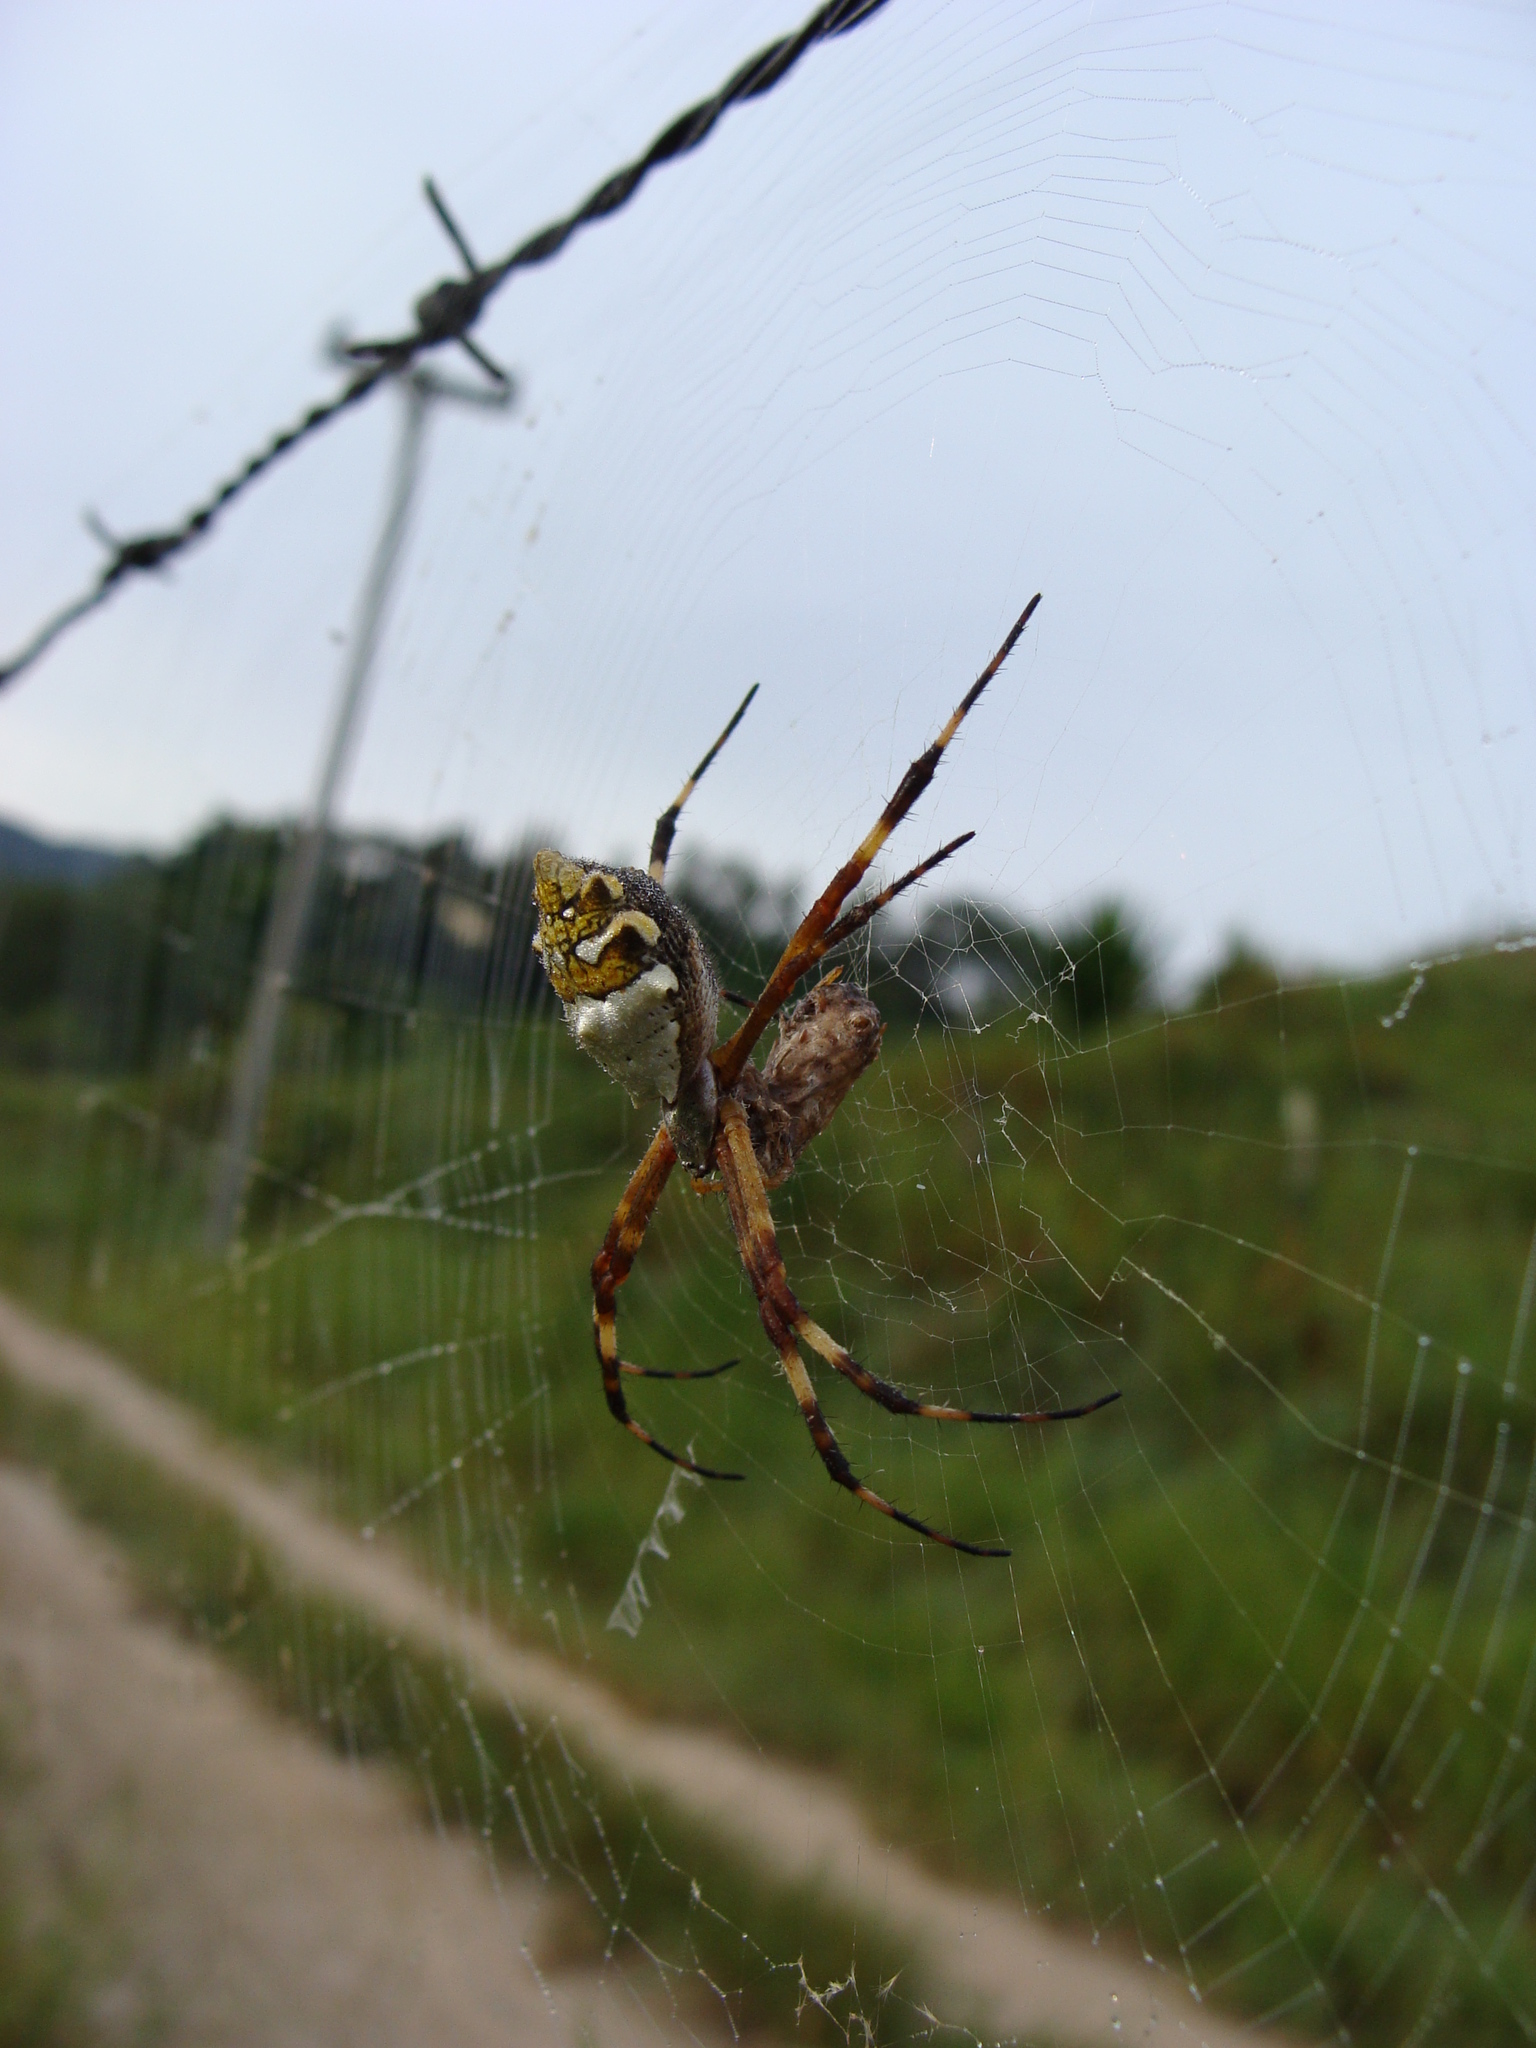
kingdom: Animalia
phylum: Arthropoda
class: Arachnida
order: Araneae
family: Araneidae
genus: Argiope
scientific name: Argiope argentata
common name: Orb weavers
